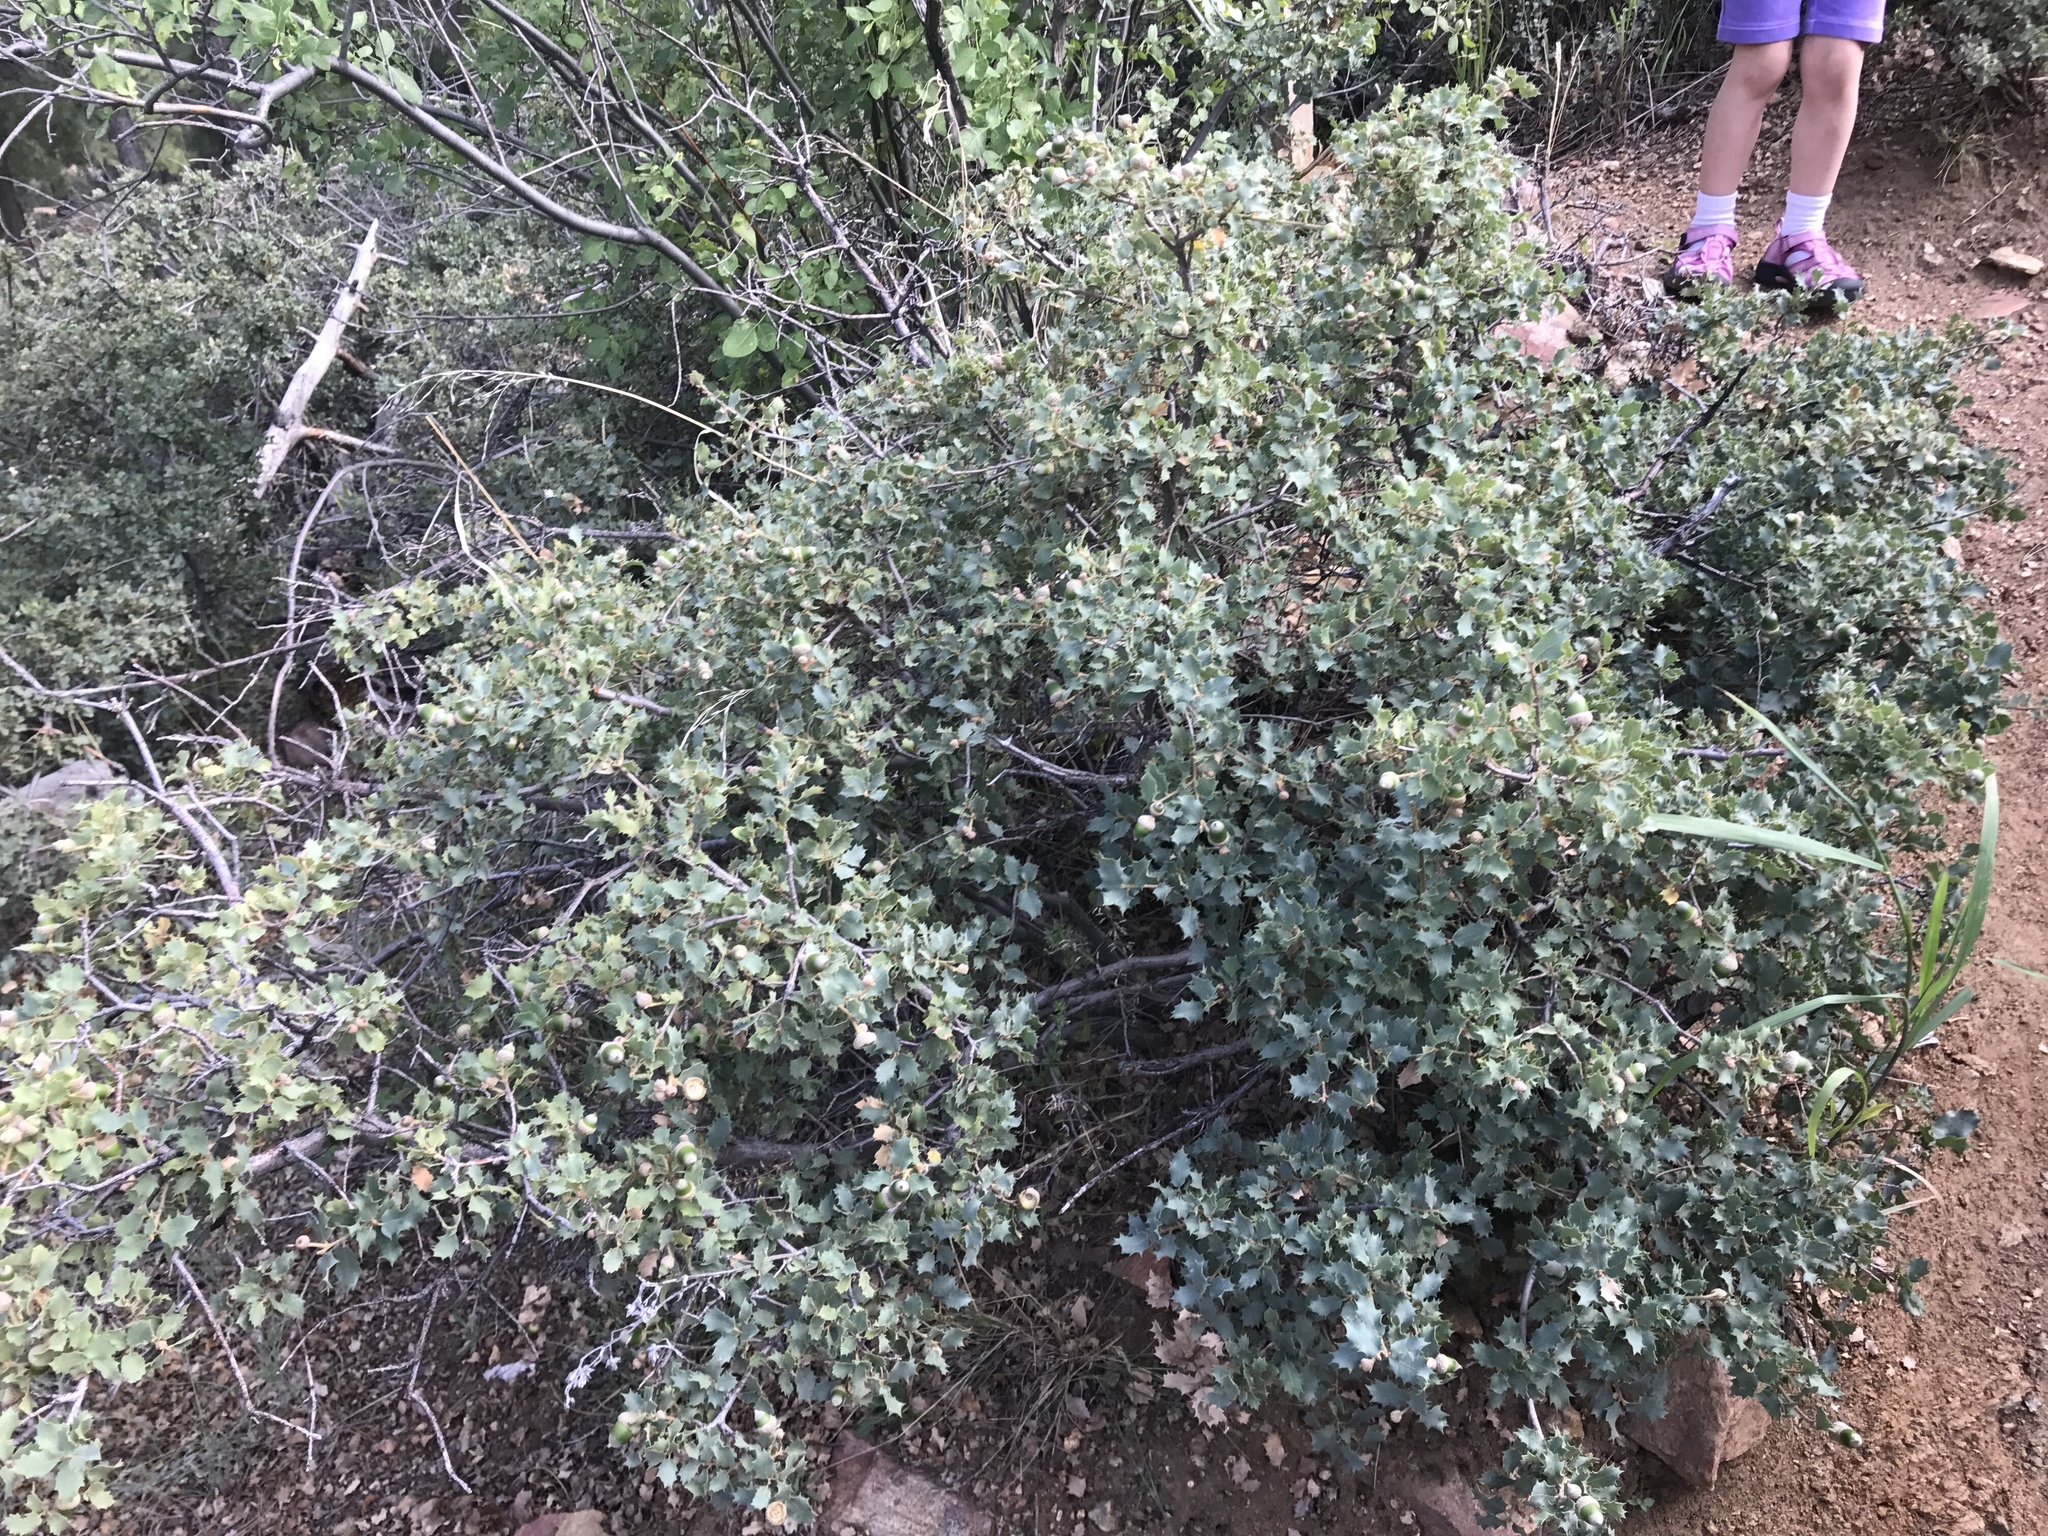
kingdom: Plantae
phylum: Tracheophyta
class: Magnoliopsida
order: Fagales
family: Fagaceae
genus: Quercus
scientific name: Quercus turbinella
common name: Sonoran scrub oak
